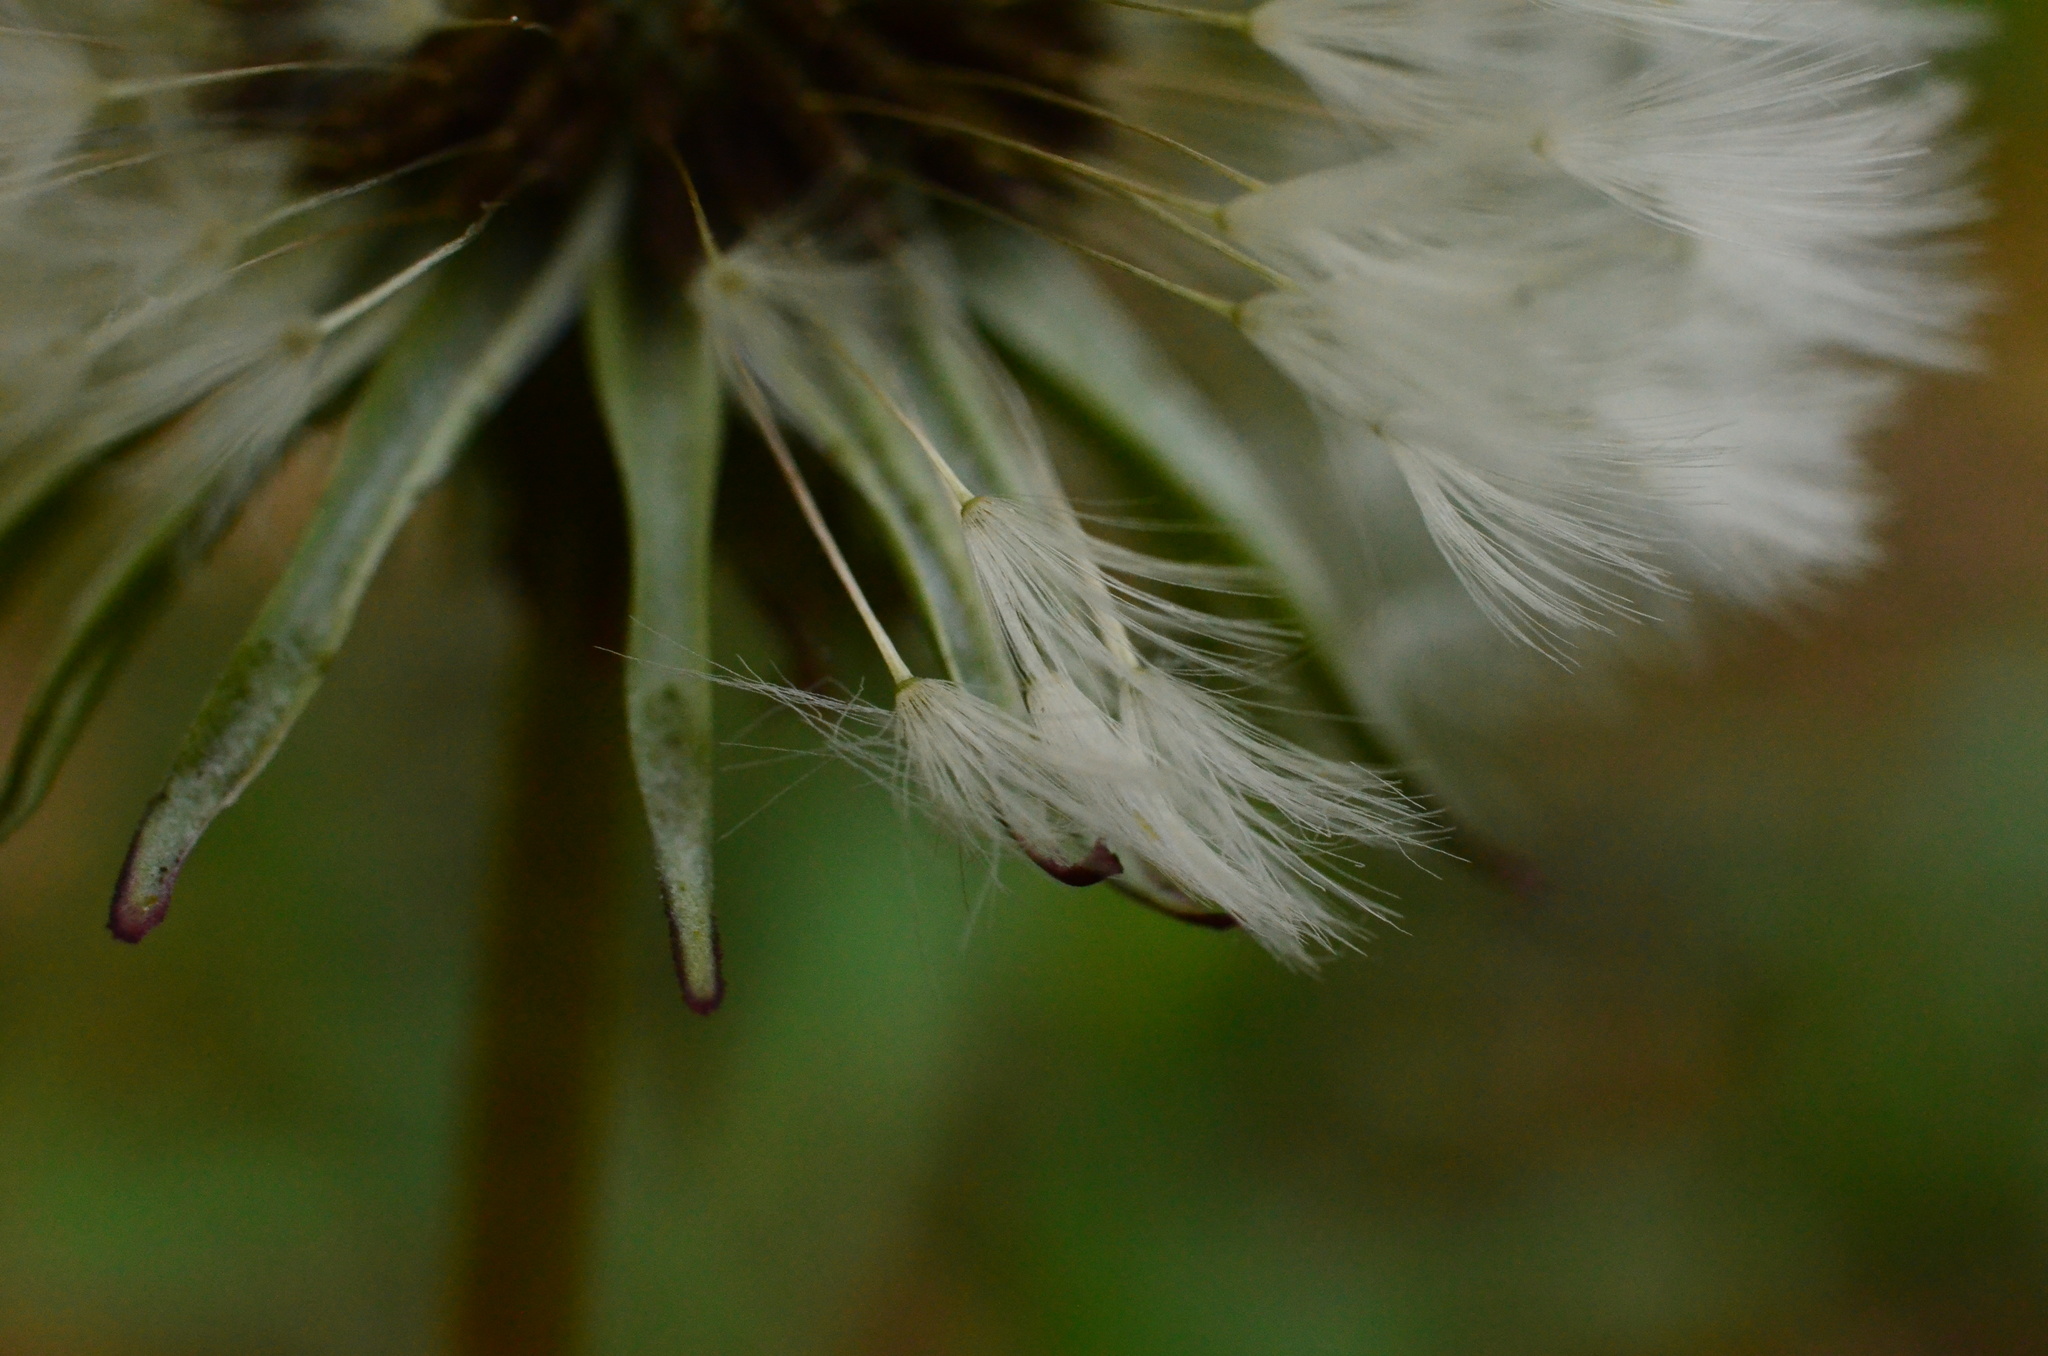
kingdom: Plantae
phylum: Tracheophyta
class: Magnoliopsida
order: Asterales
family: Asteraceae
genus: Taraxacum
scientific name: Taraxacum erythrospermum
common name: Rock dandelion
